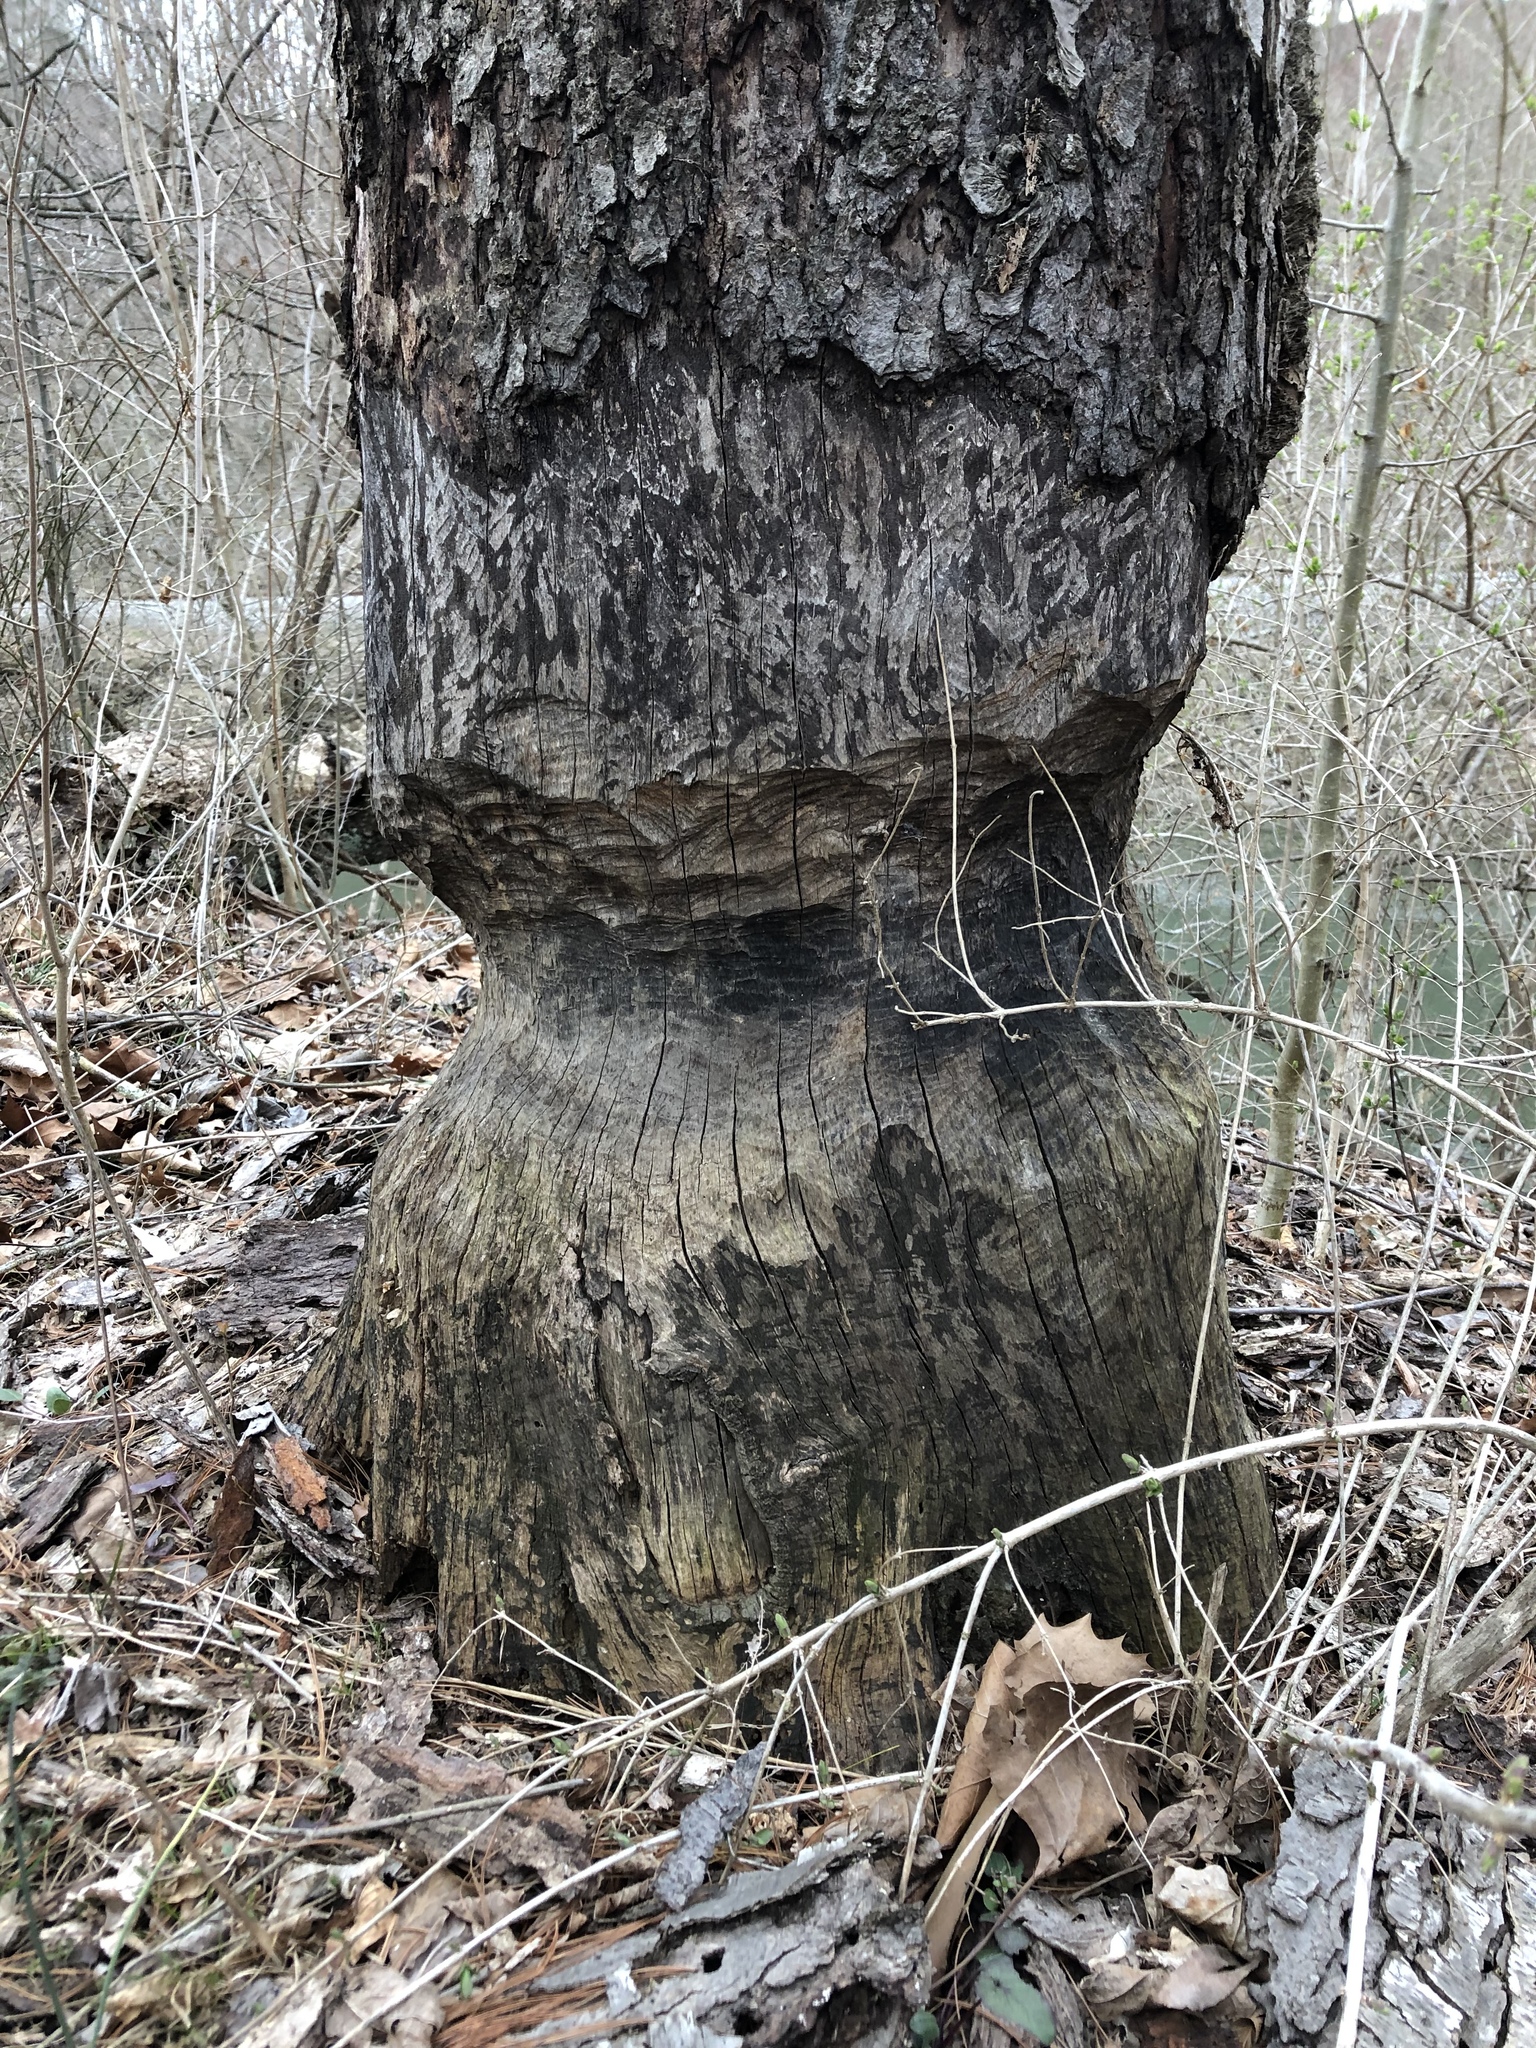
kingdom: Animalia
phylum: Chordata
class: Mammalia
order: Rodentia
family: Castoridae
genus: Castor
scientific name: Castor canadensis
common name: American beaver
